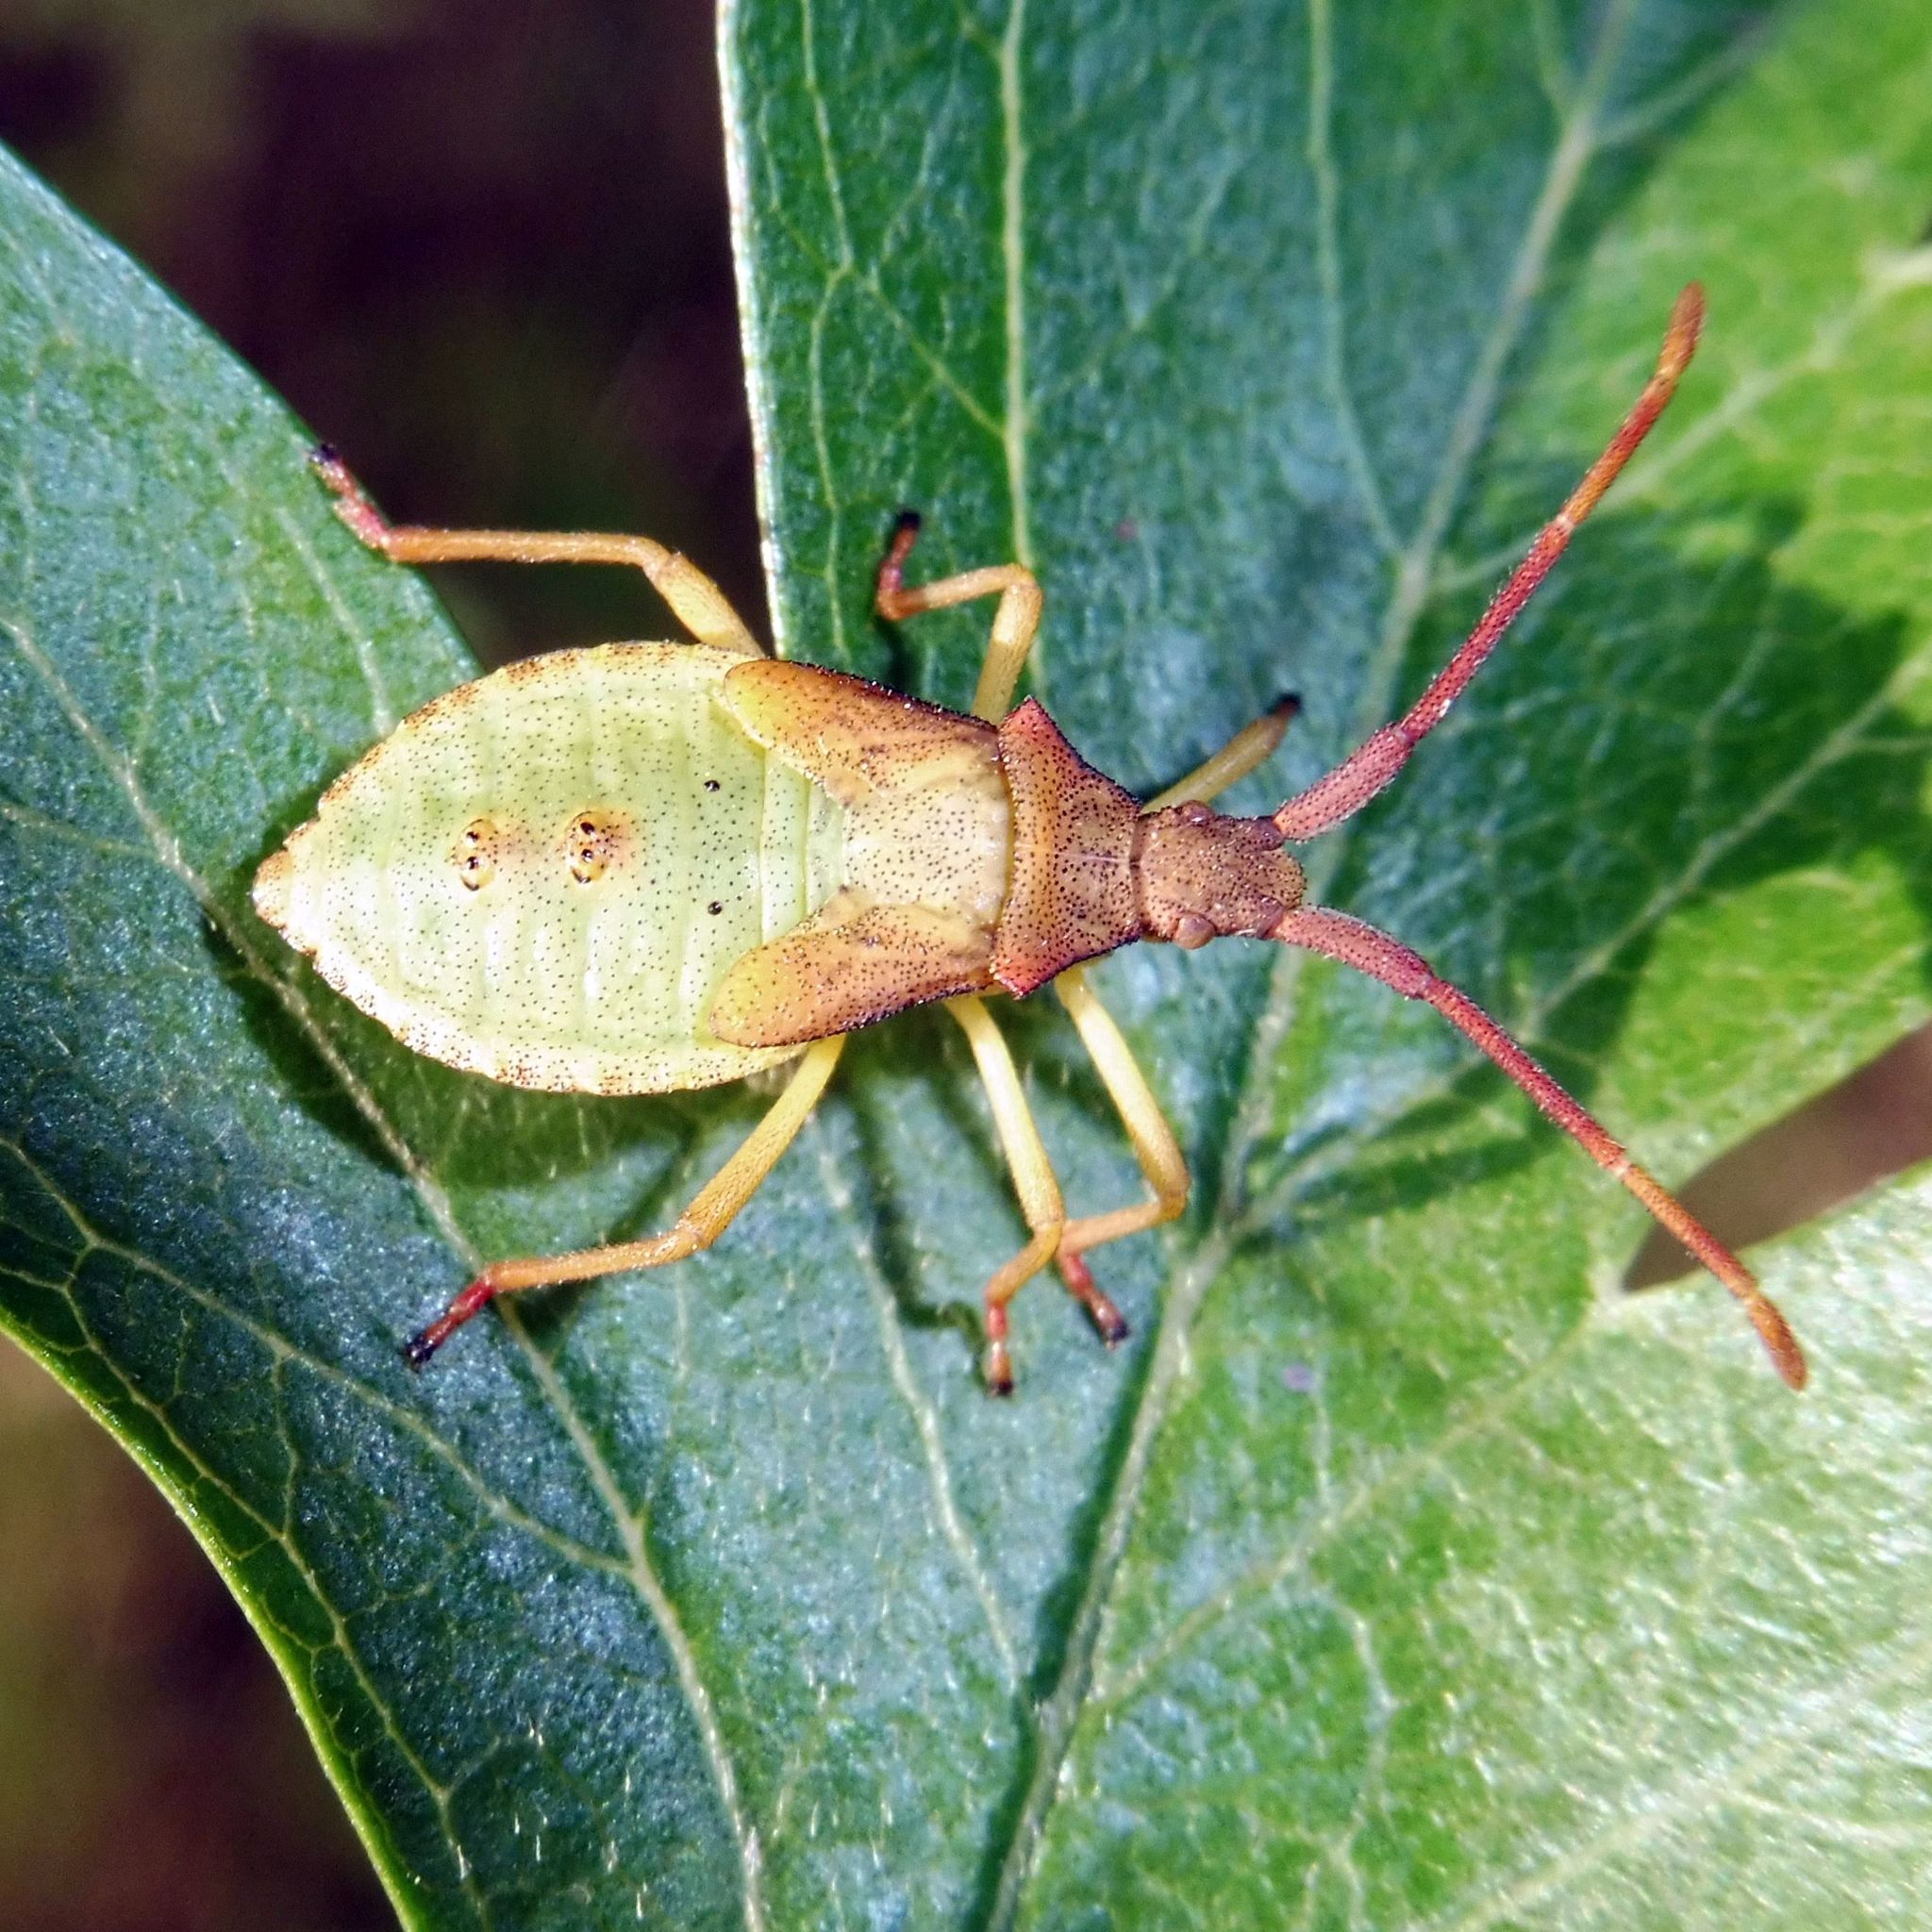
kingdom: Animalia
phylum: Arthropoda
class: Insecta
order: Hemiptera
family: Coreidae
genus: Gonocerus
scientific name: Gonocerus acuteangulatus
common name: Box bug
